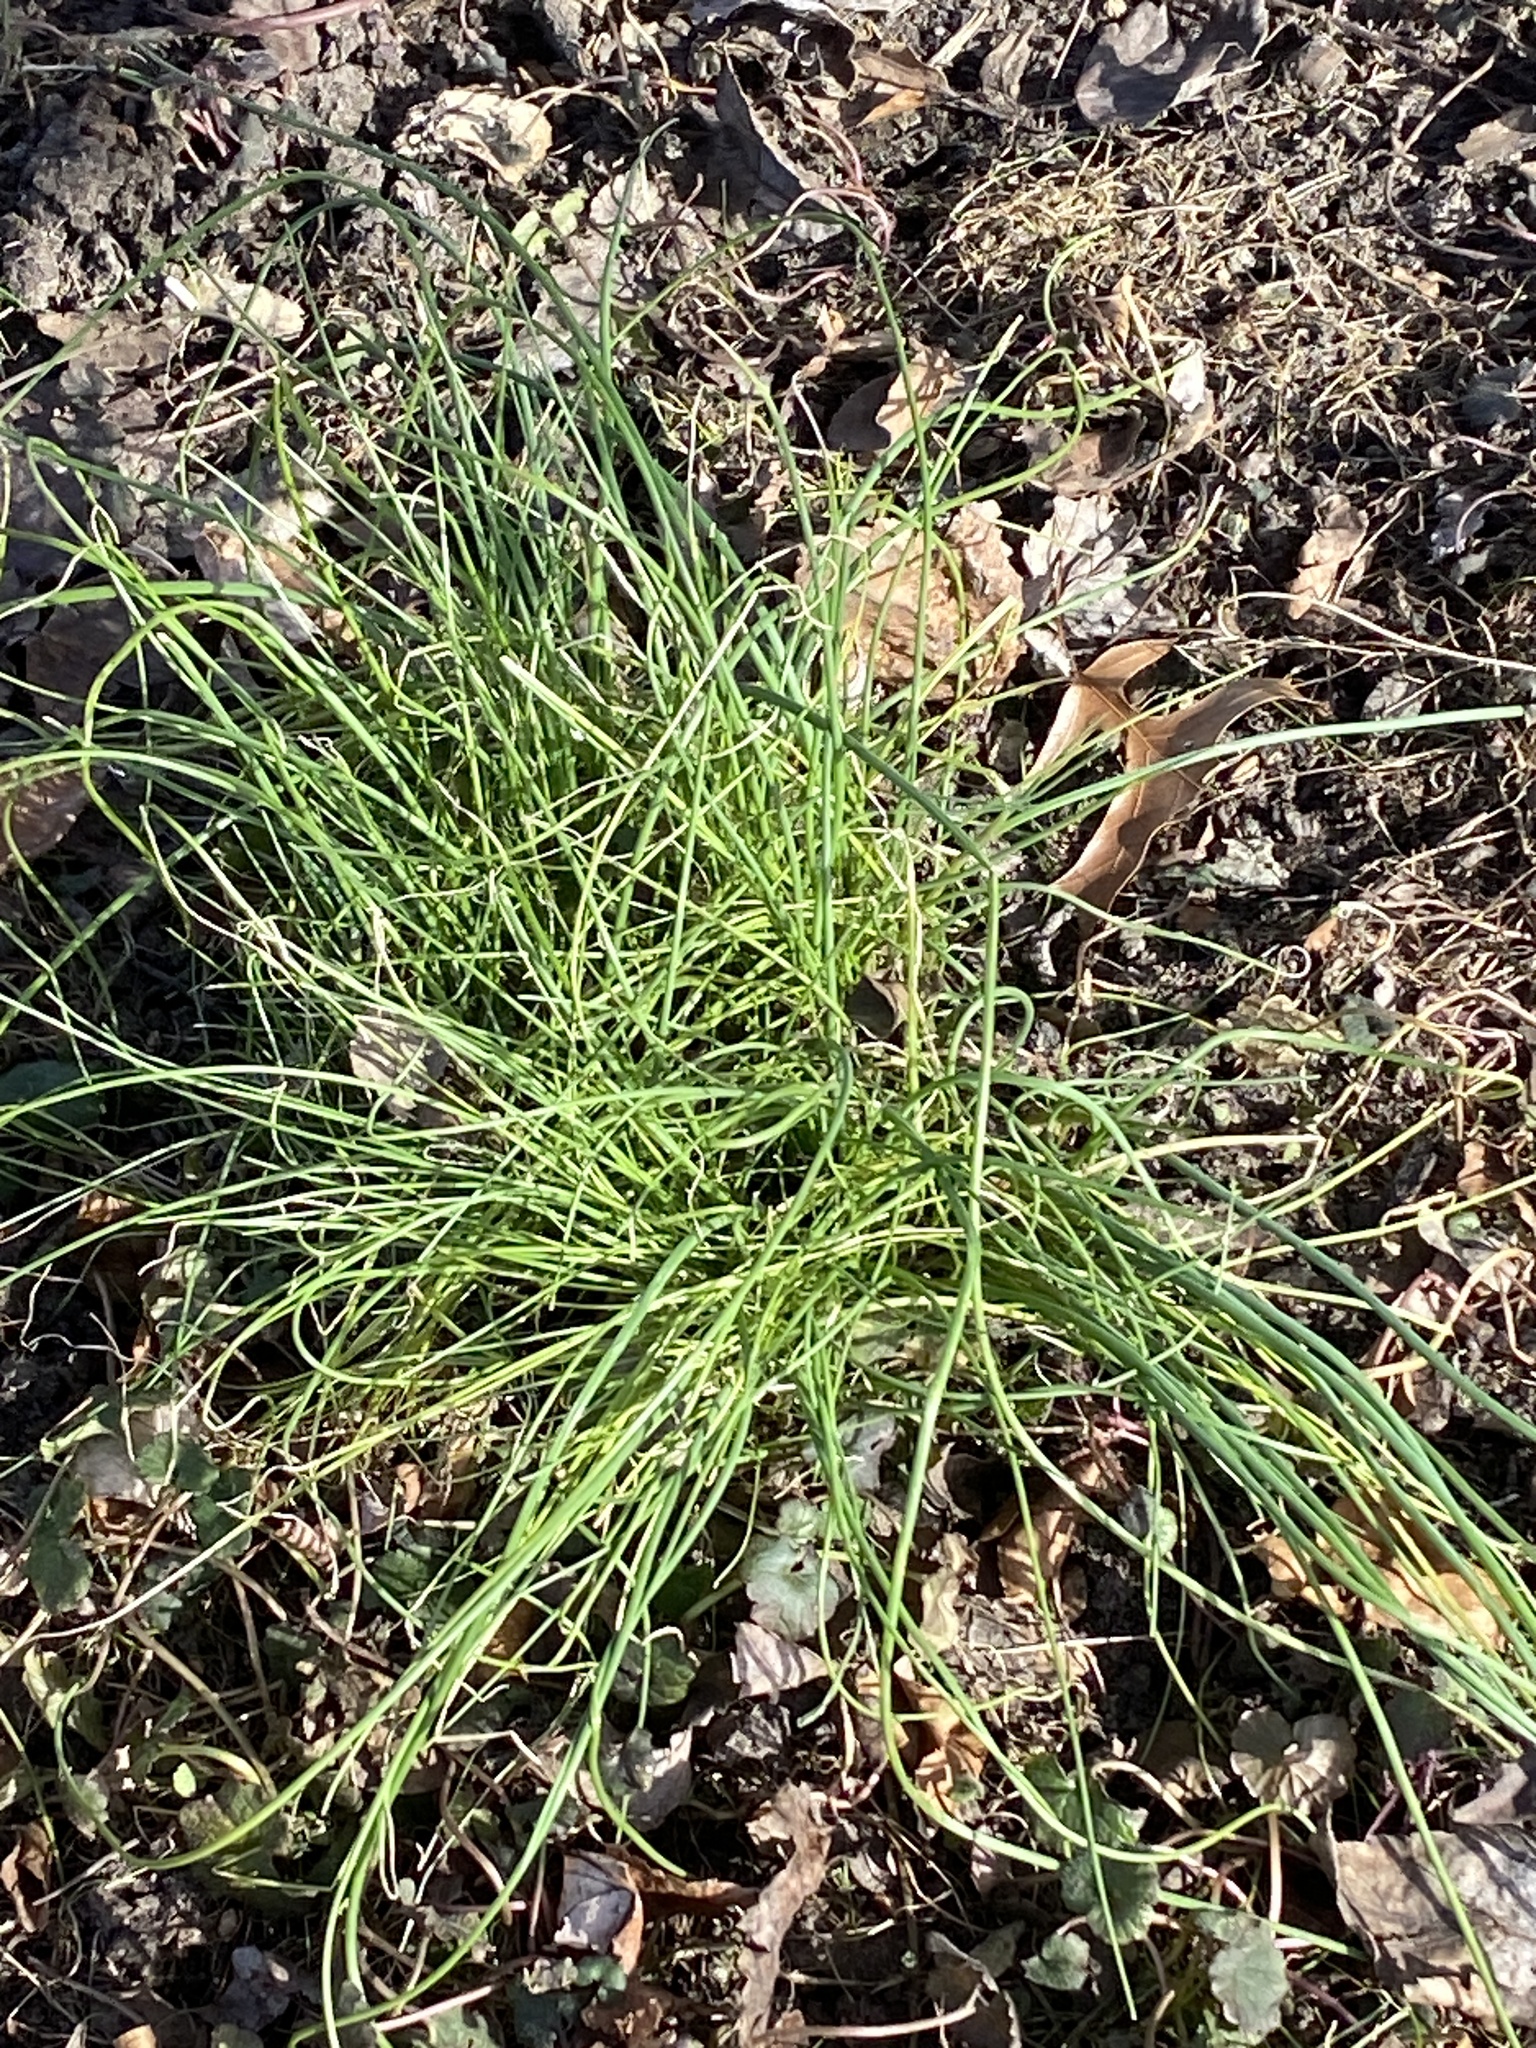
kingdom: Plantae
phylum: Tracheophyta
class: Liliopsida
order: Asparagales
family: Amaryllidaceae
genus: Allium
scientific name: Allium vineale
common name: Crow garlic
